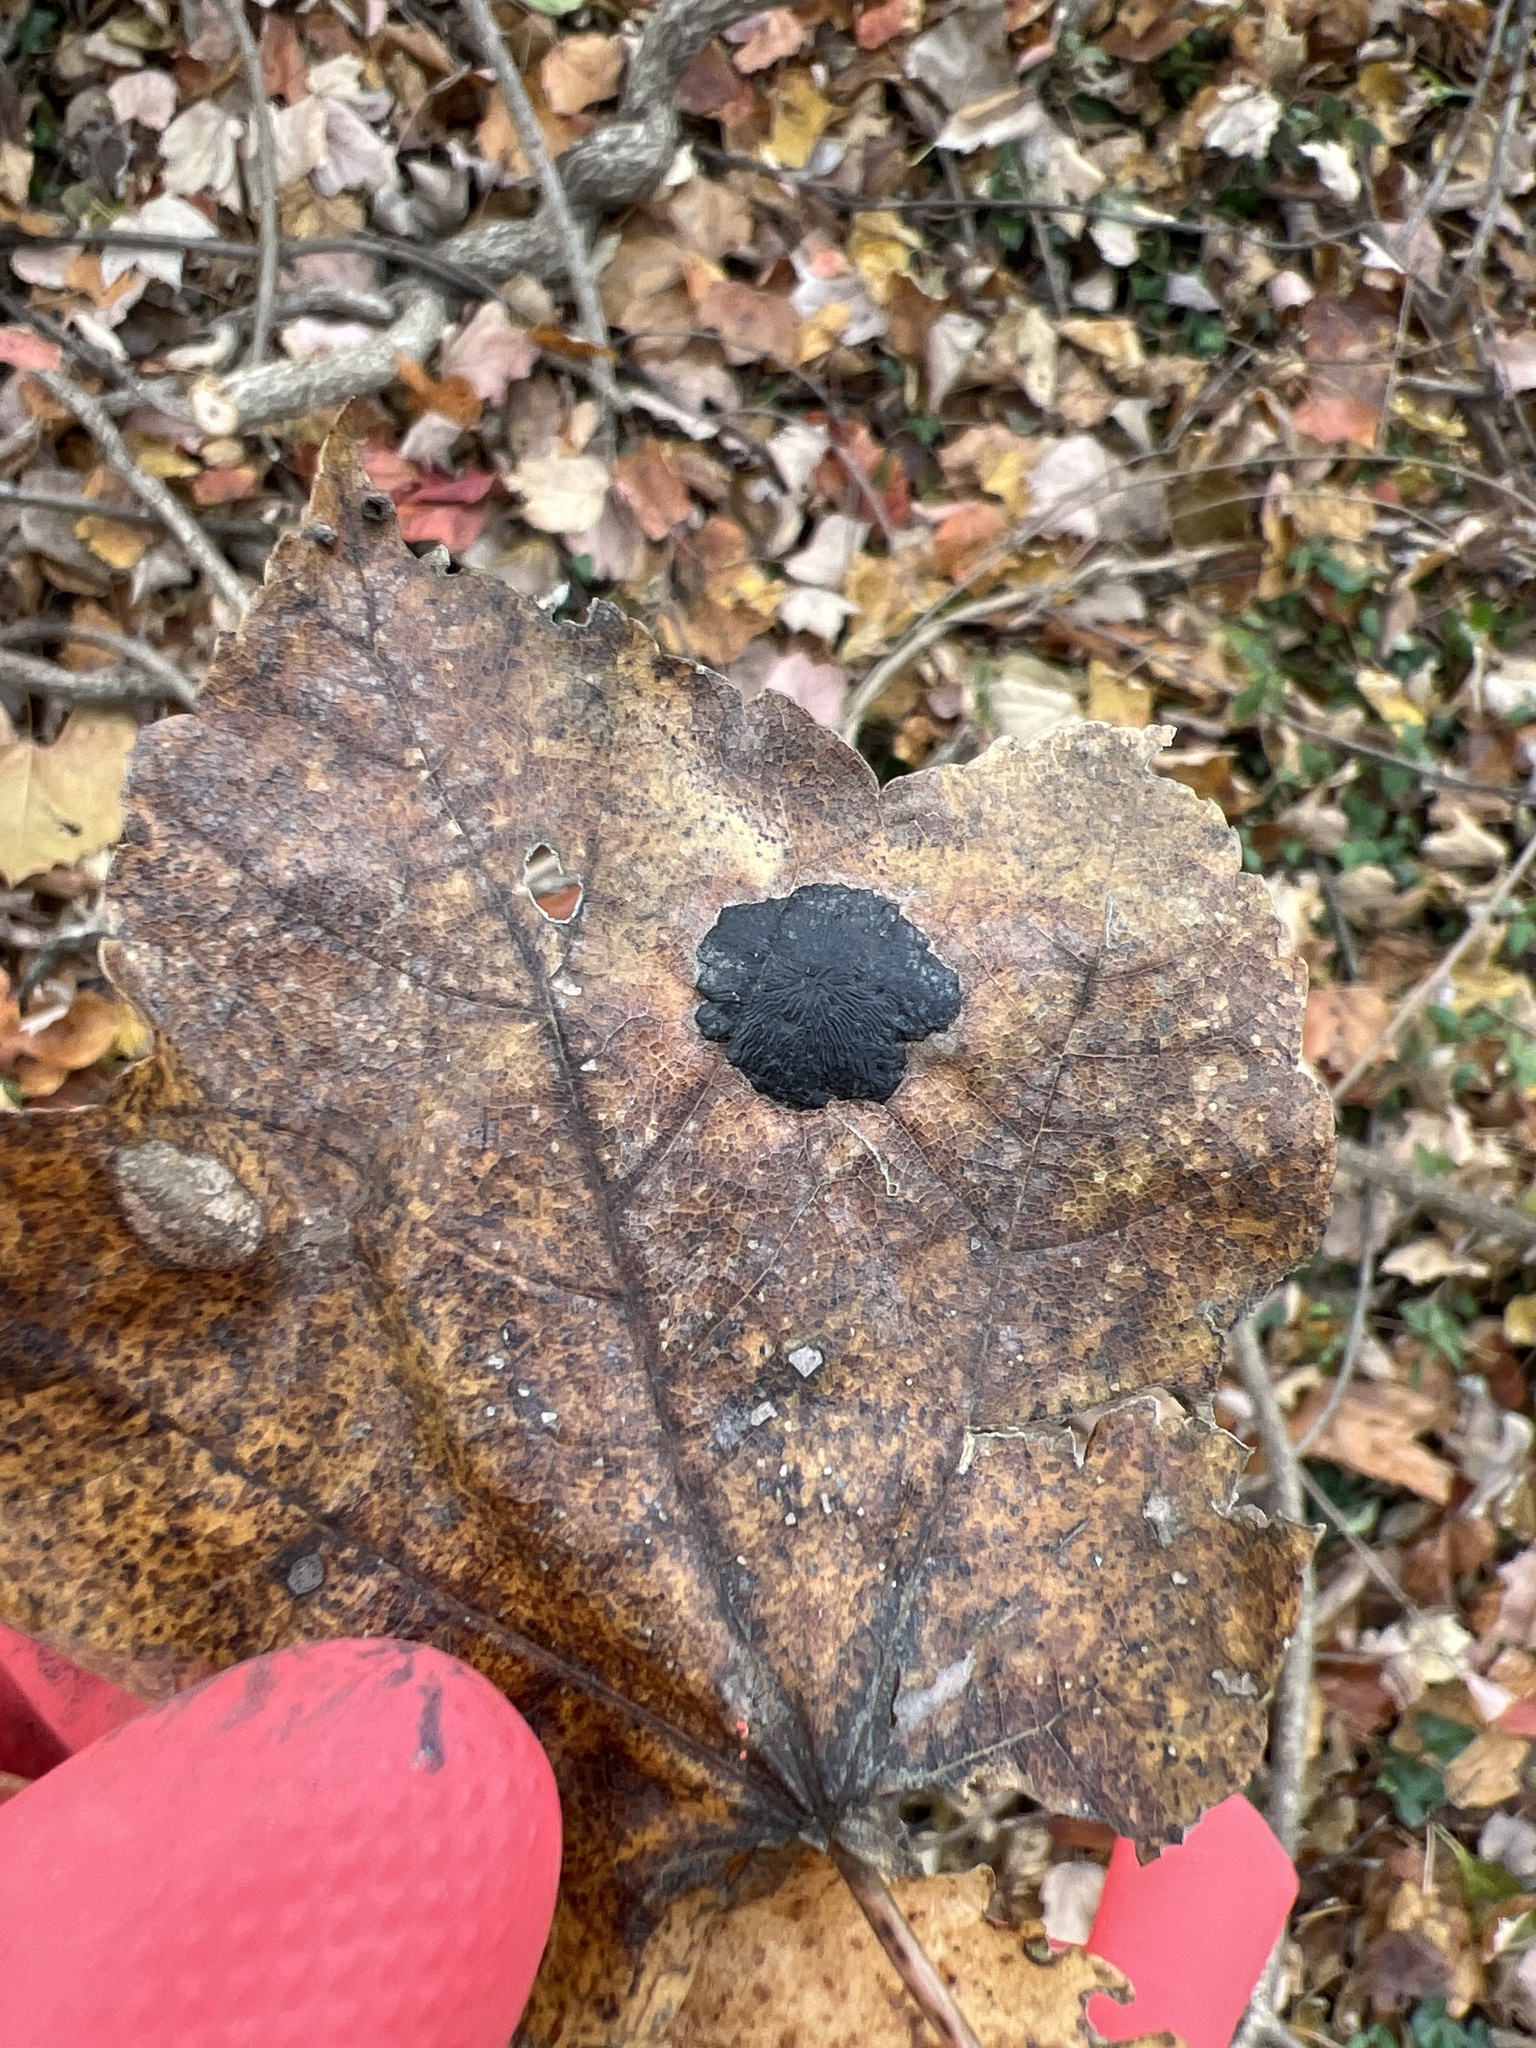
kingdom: Fungi
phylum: Ascomycota
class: Leotiomycetes
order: Rhytismatales
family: Rhytismataceae
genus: Rhytisma
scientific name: Rhytisma acerinum
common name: European tar spot
